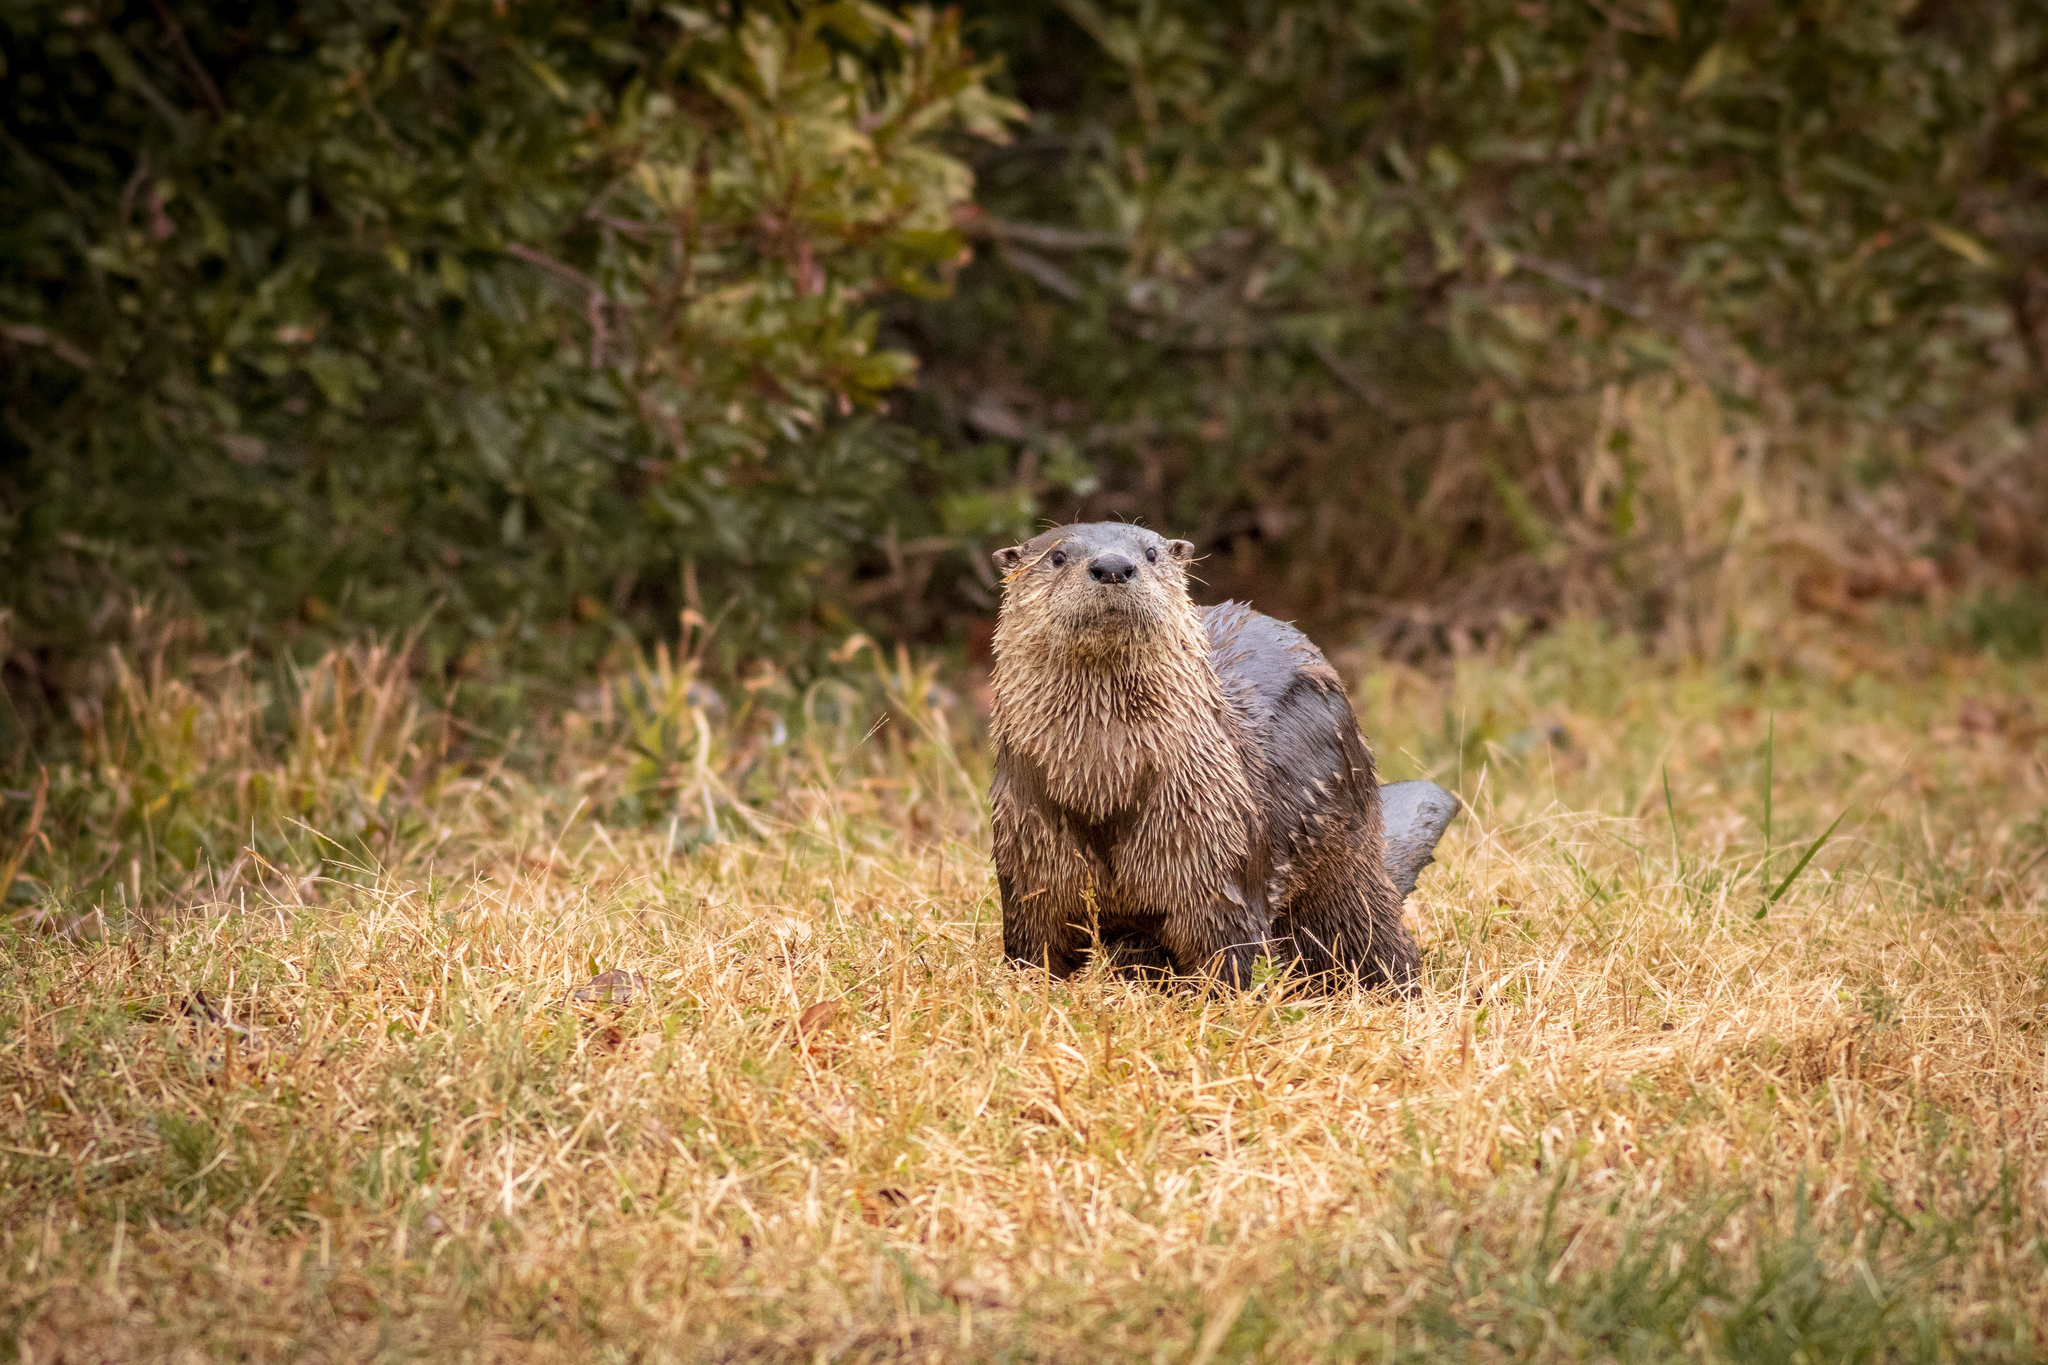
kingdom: Animalia
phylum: Chordata
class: Mammalia
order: Carnivora
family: Mustelidae
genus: Lontra
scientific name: Lontra canadensis
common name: North american river otter
